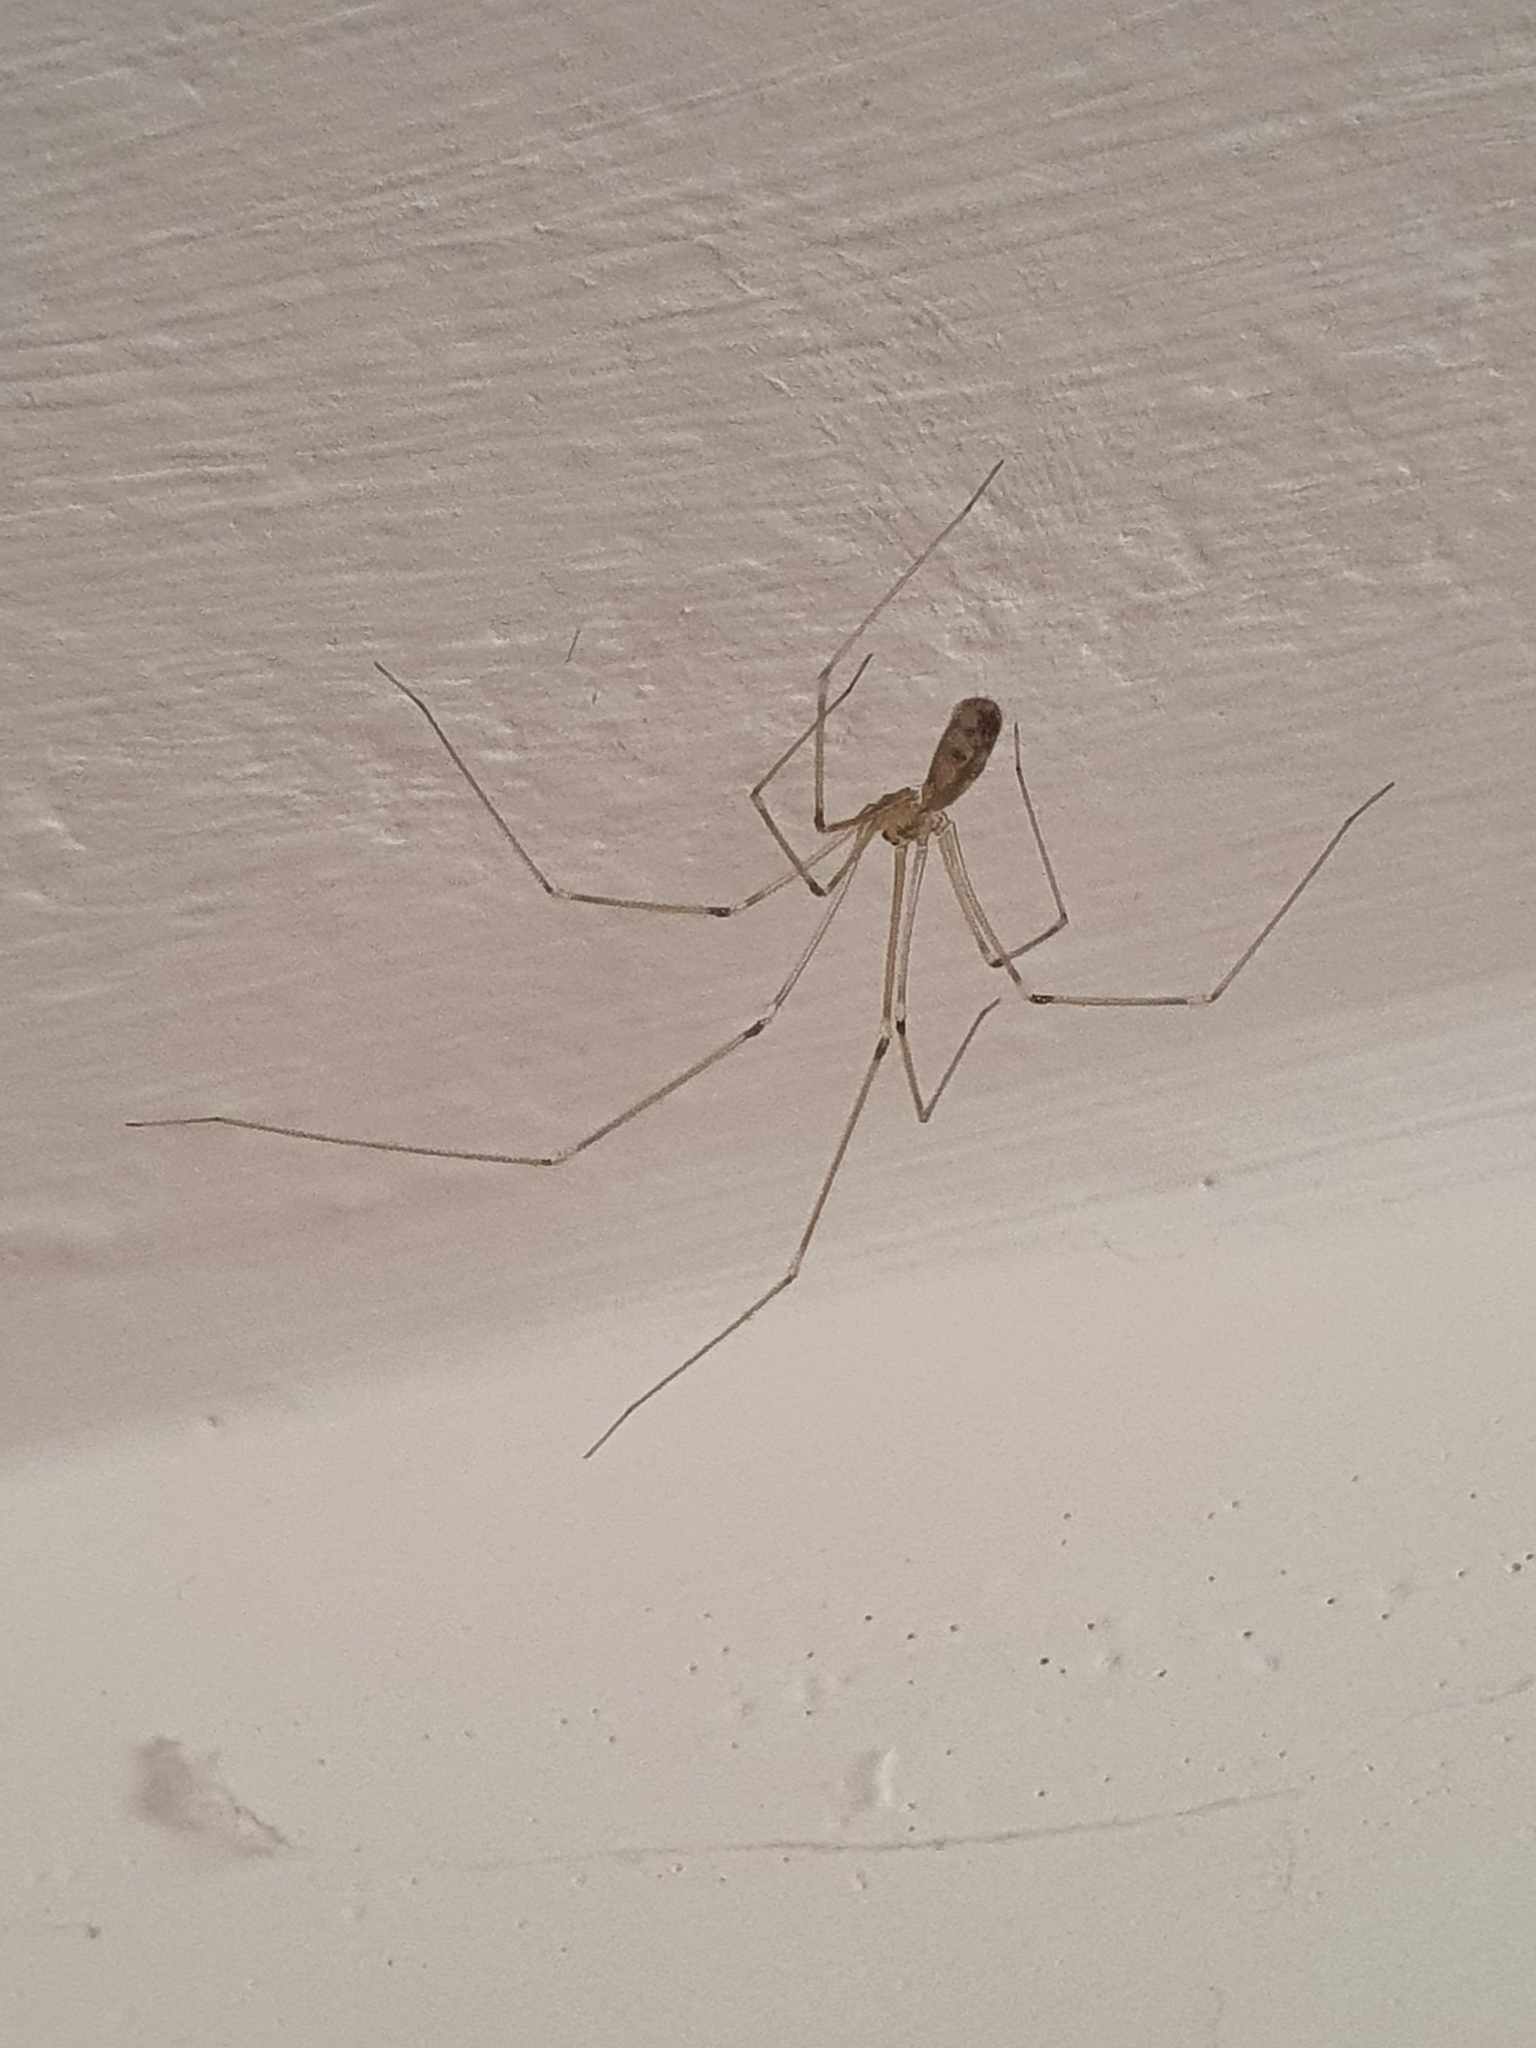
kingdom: Animalia
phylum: Arthropoda
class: Arachnida
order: Araneae
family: Pholcidae
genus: Pholcus
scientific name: Pholcus phalangioides
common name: Longbodied cellar spider
